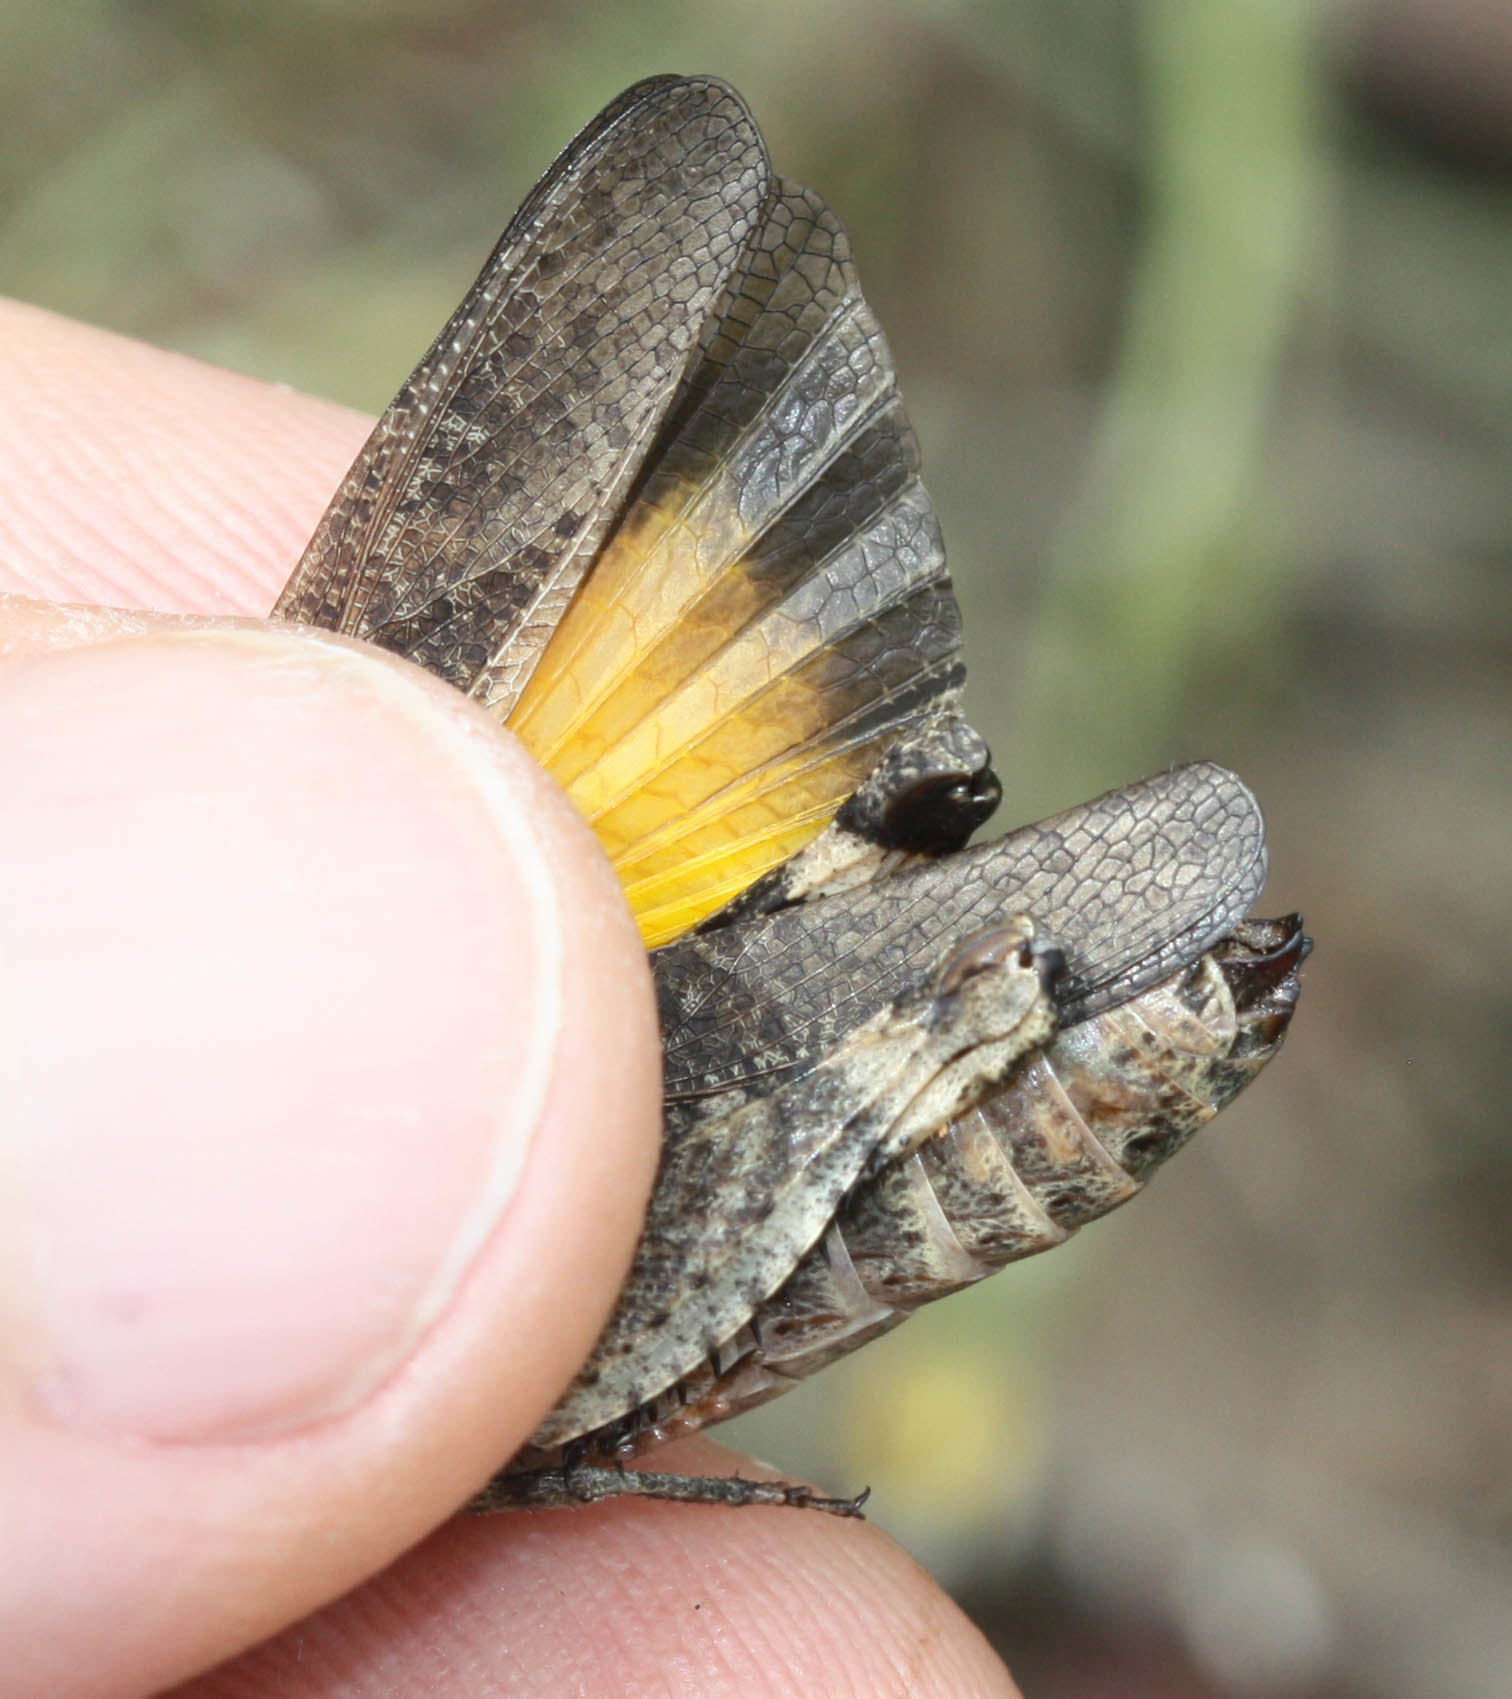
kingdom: Animalia
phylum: Arthropoda
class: Insecta
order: Orthoptera
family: Acrididae
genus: Arphia
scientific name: Arphia behrensi
